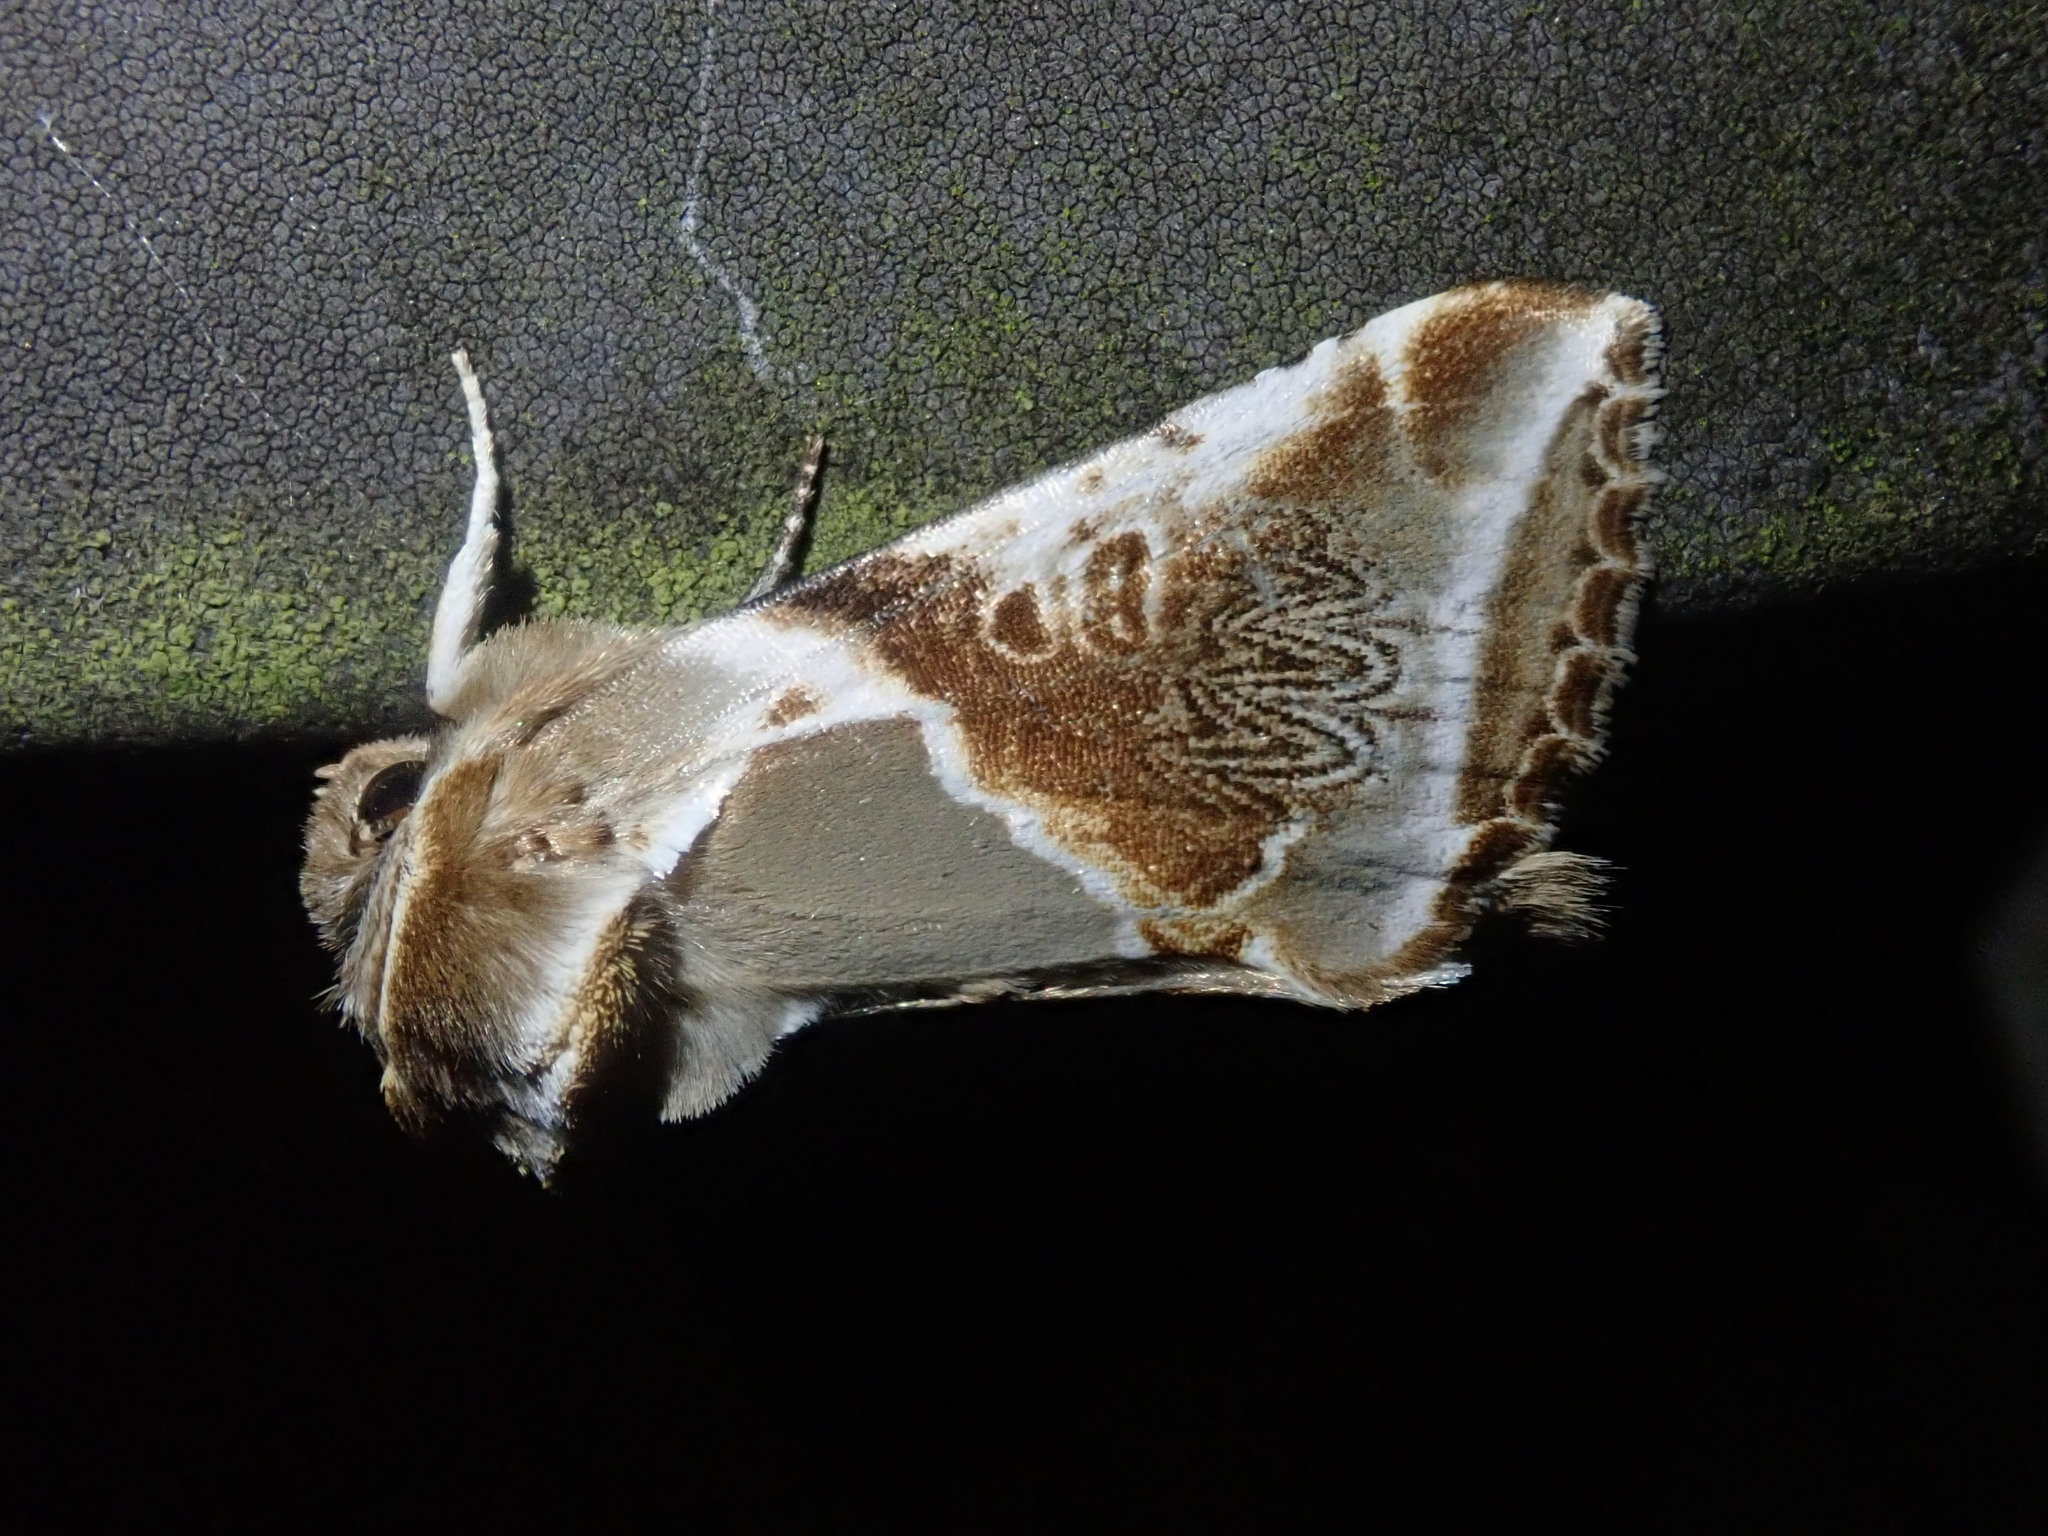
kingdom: Animalia
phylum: Arthropoda
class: Insecta
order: Lepidoptera
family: Drepanidae
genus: Habrosyne
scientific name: Habrosyne pyritoides
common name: Buff arches
